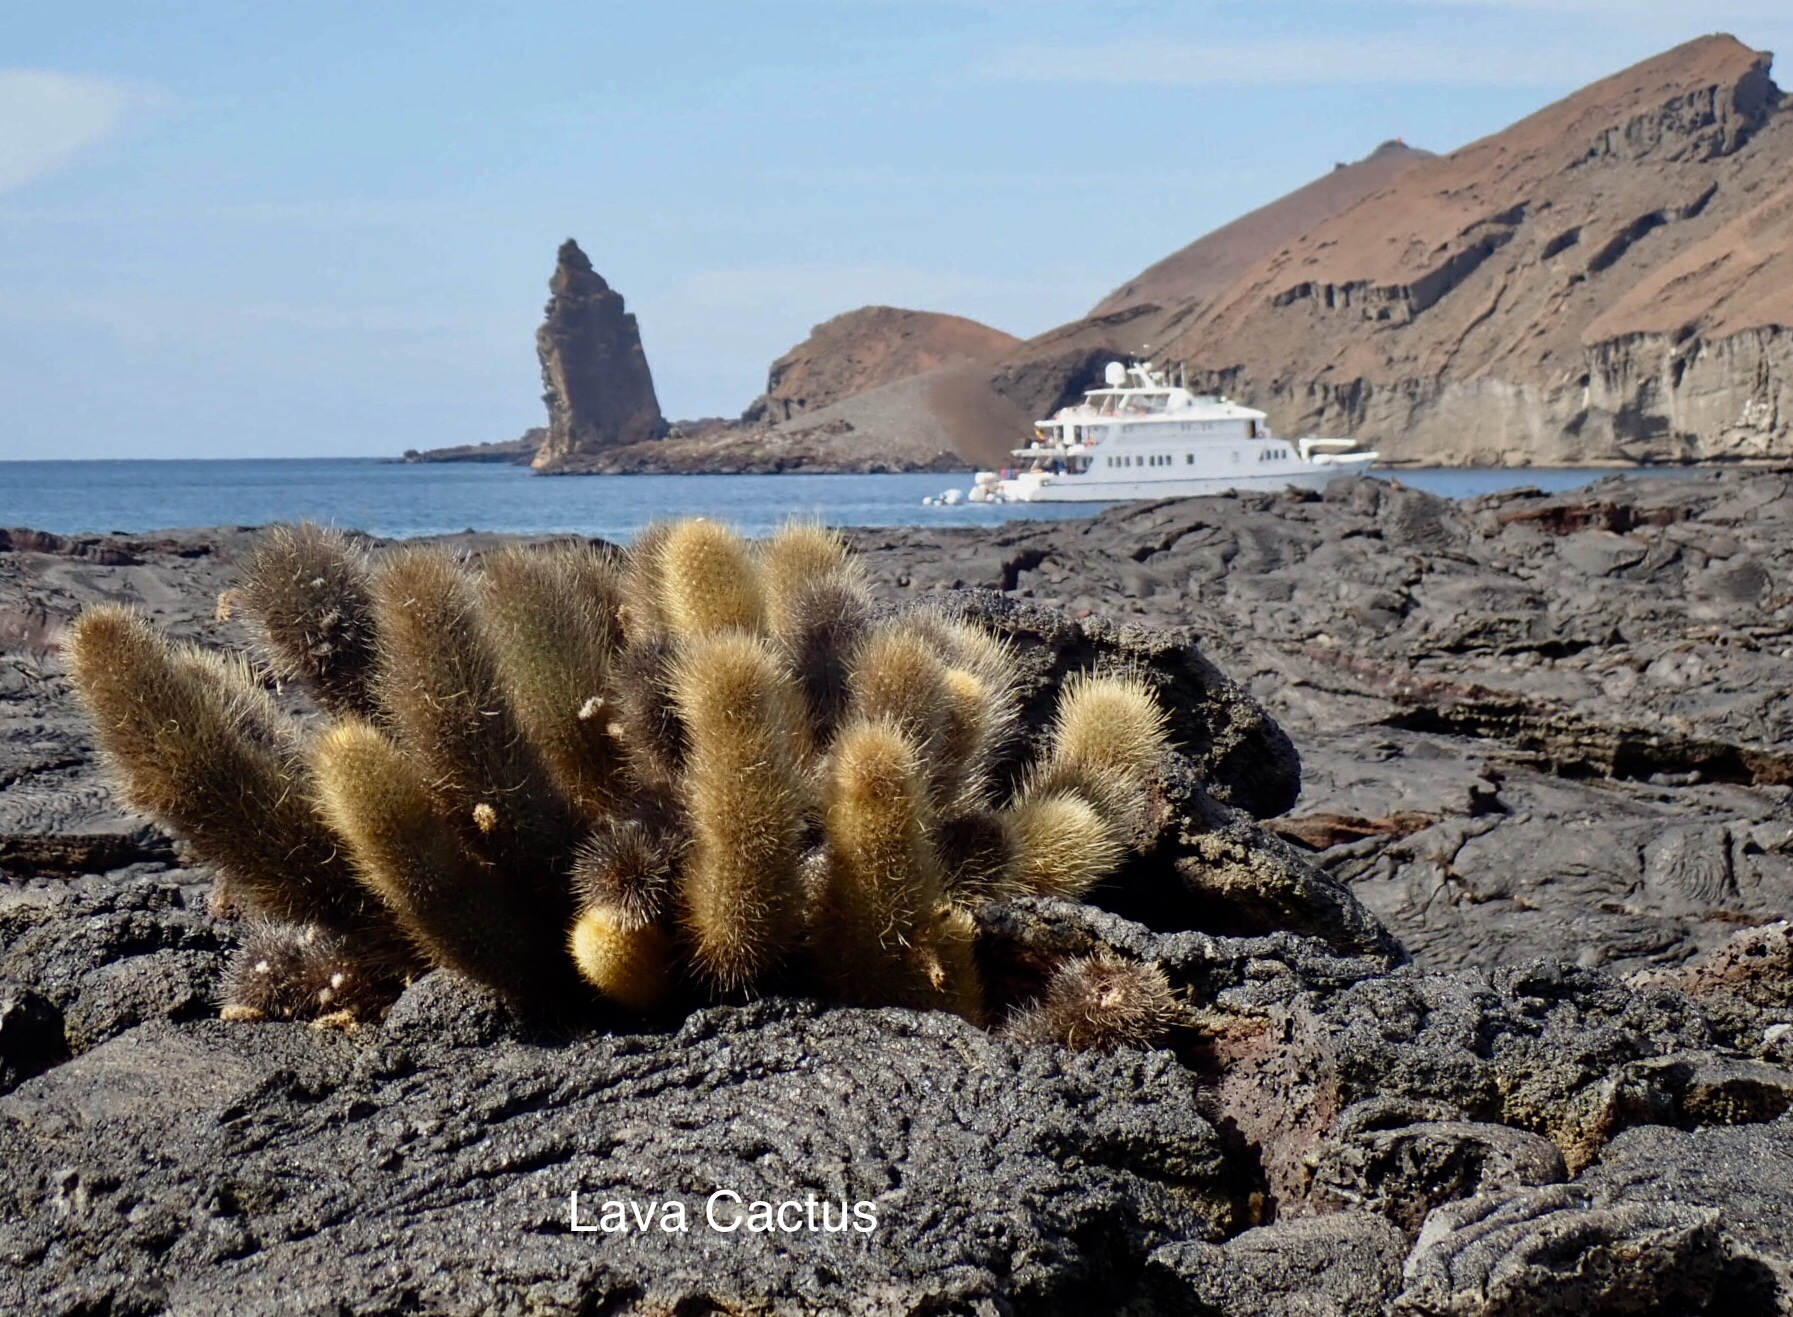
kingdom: Plantae
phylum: Tracheophyta
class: Magnoliopsida
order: Caryophyllales
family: Cactaceae
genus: Brachycereus
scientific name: Brachycereus nesioticus
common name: Lava cactus
